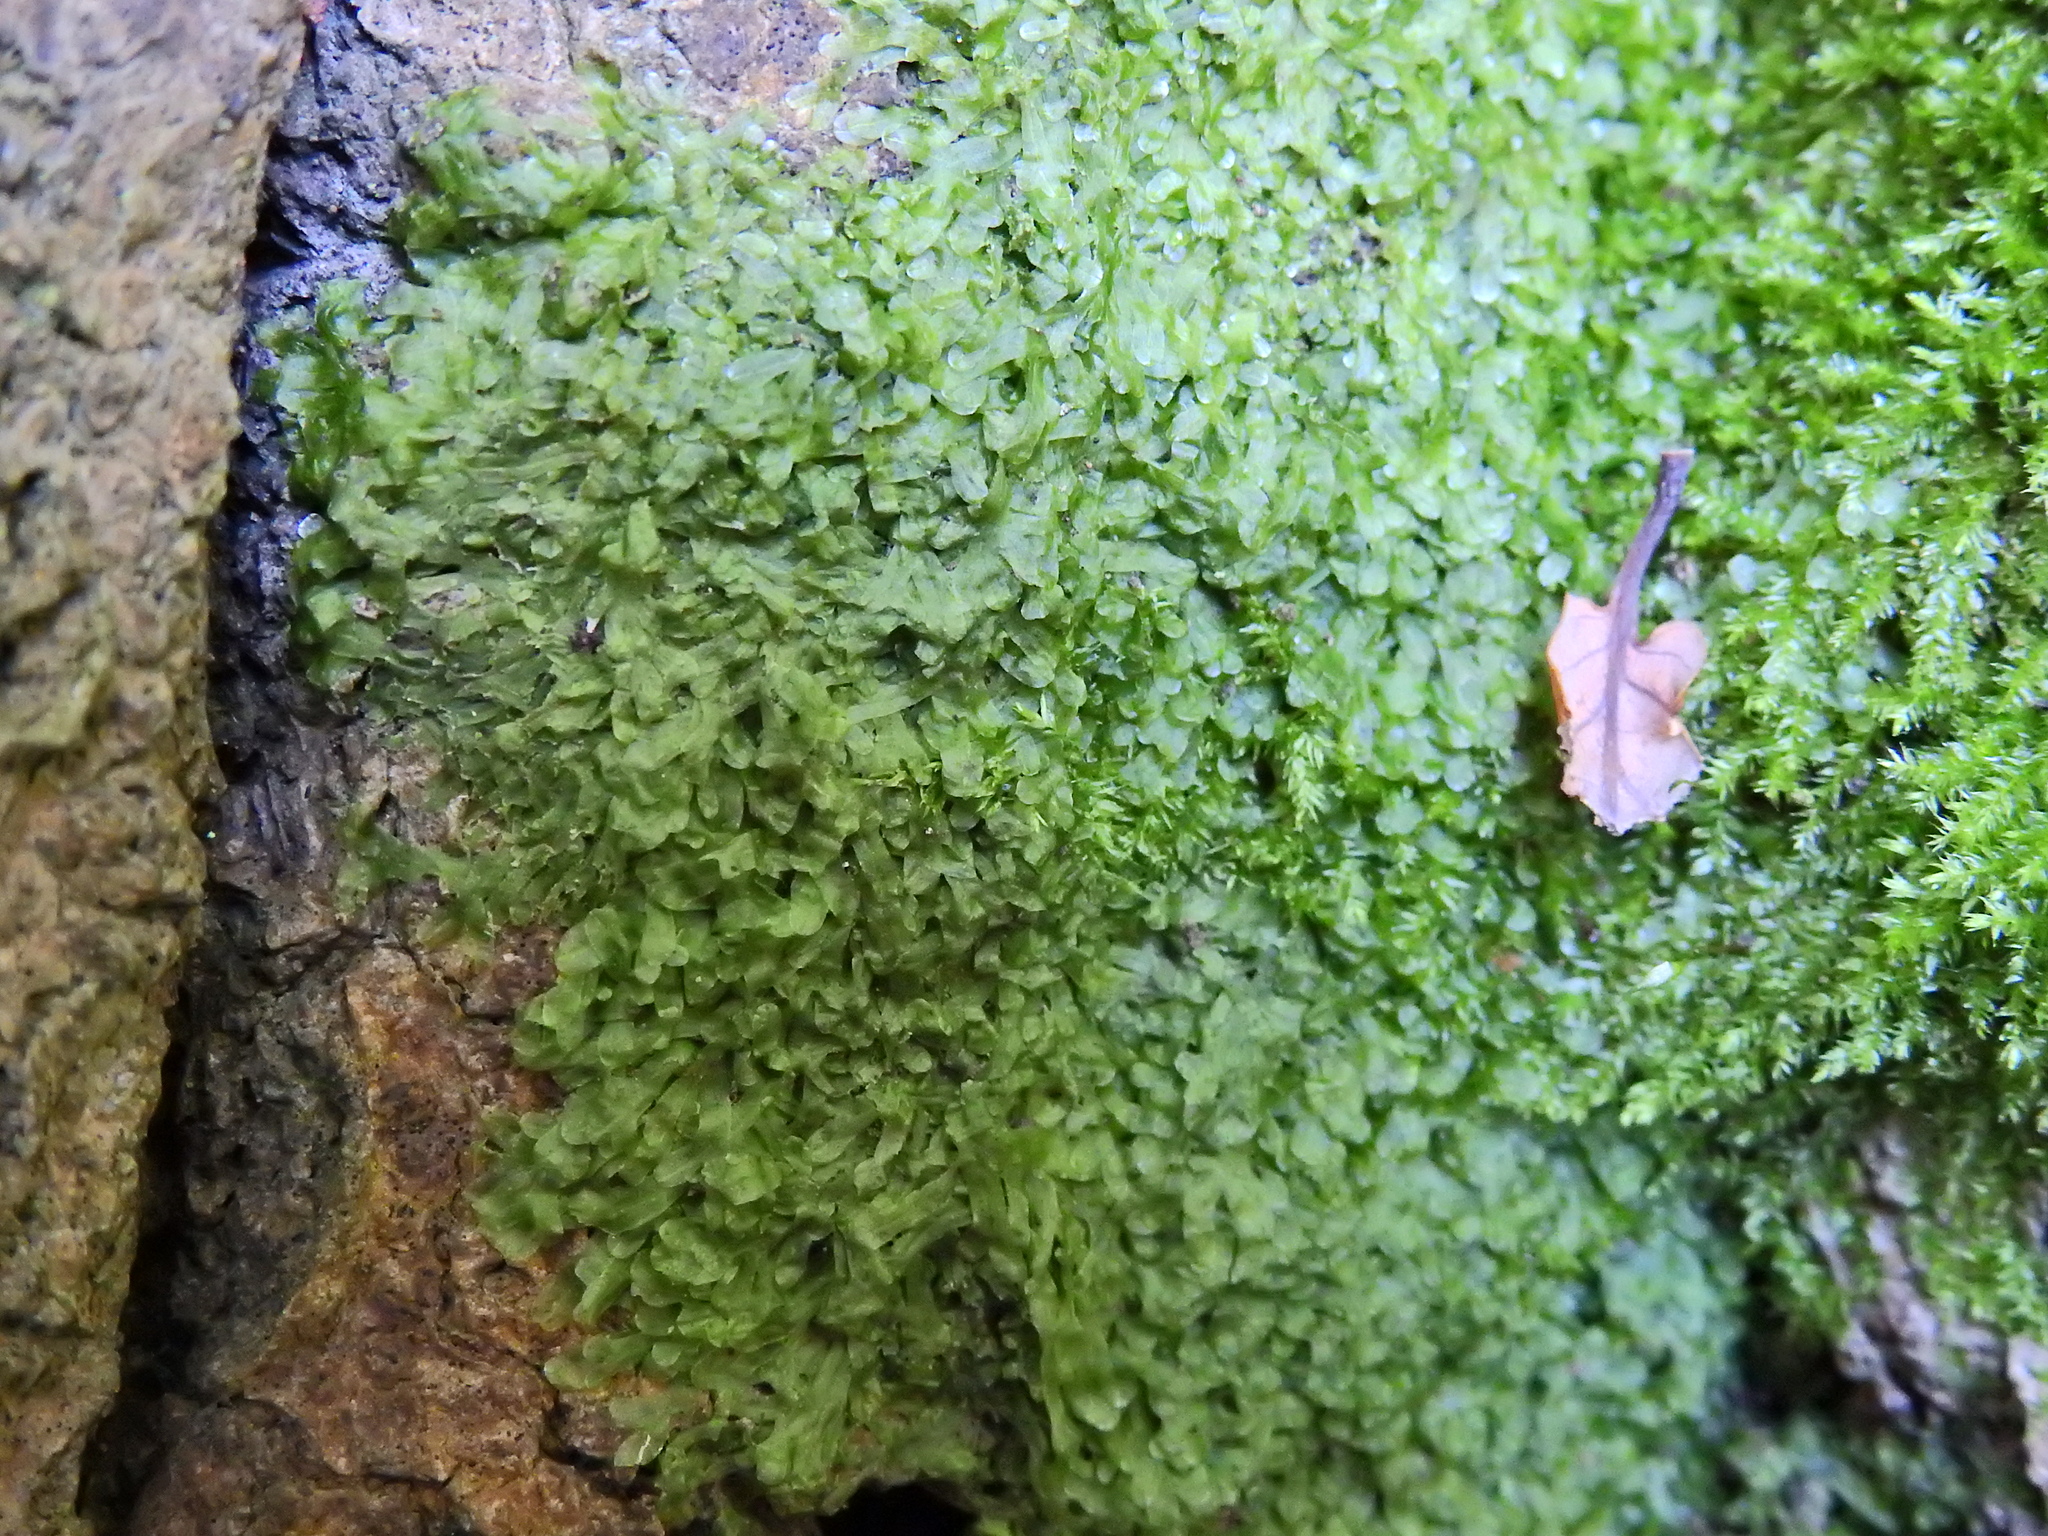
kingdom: Plantae
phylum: Marchantiophyta
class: Jungermanniopsida
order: Metzgeriales
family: Metzgeriaceae
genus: Metzgeria
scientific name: Metzgeria furcata
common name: Forked veilwort
